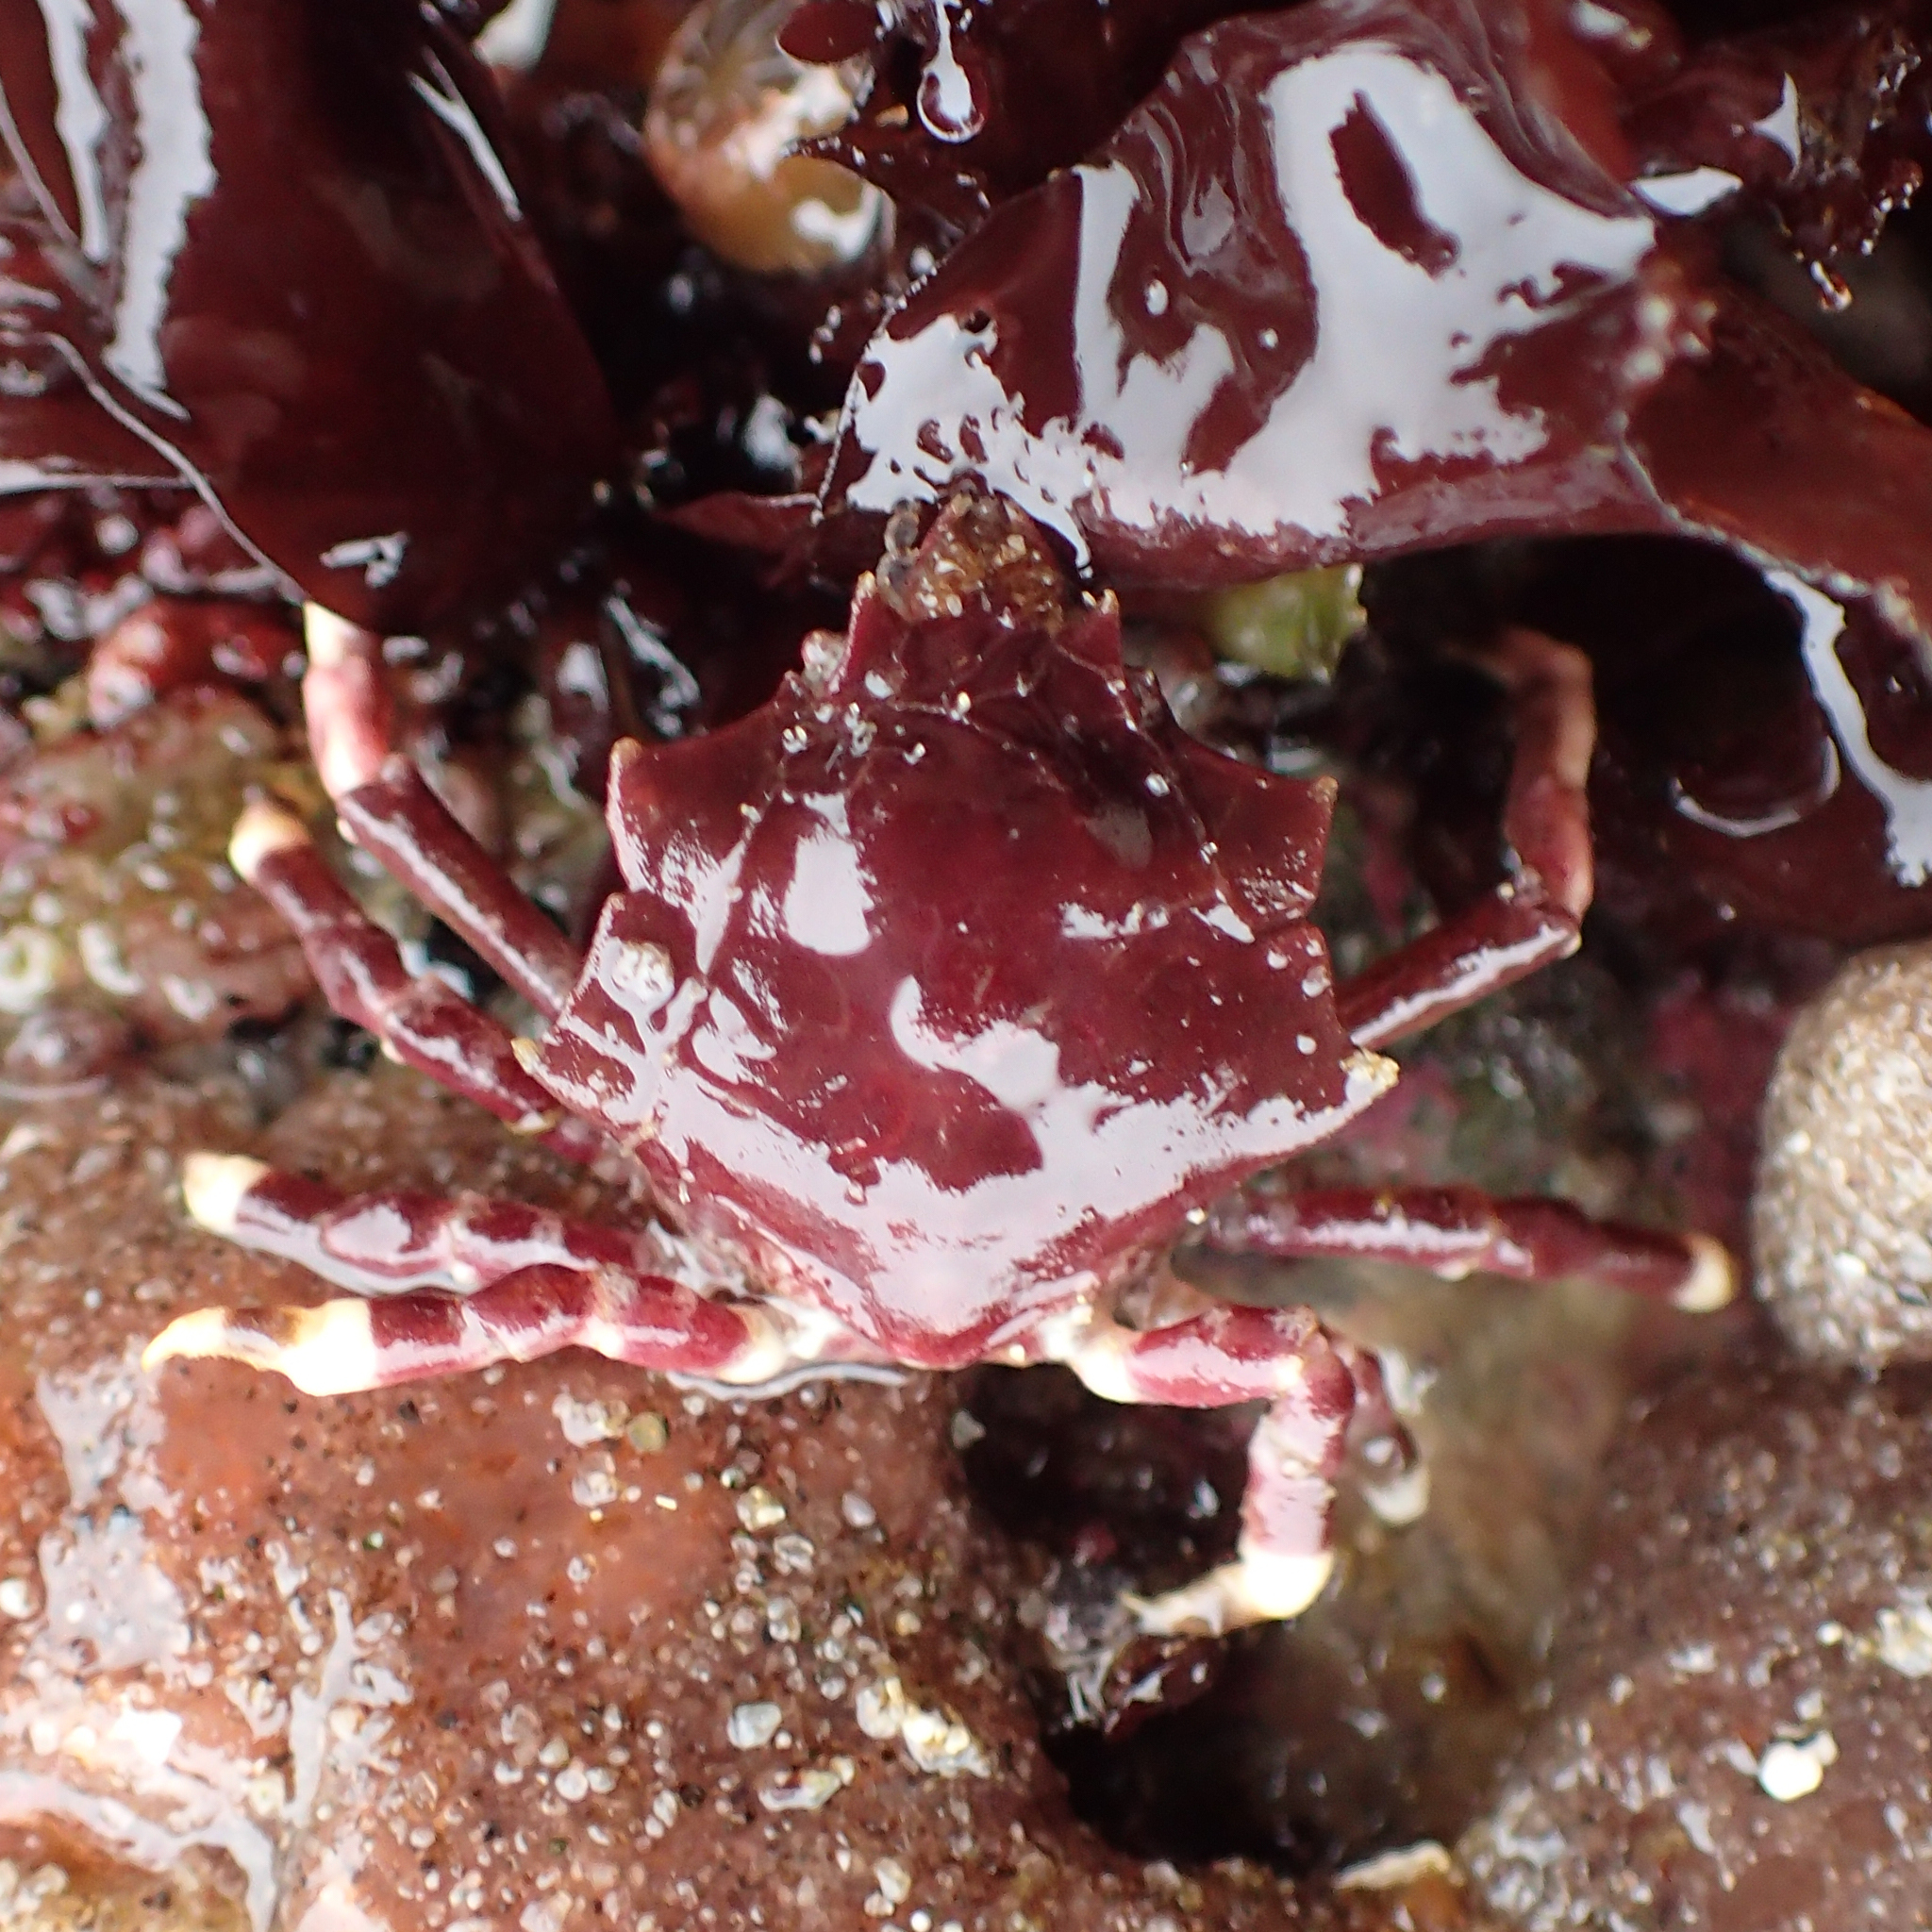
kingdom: Animalia
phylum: Arthropoda
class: Malacostraca
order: Decapoda
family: Epialtidae
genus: Pugettia
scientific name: Pugettia foliata
